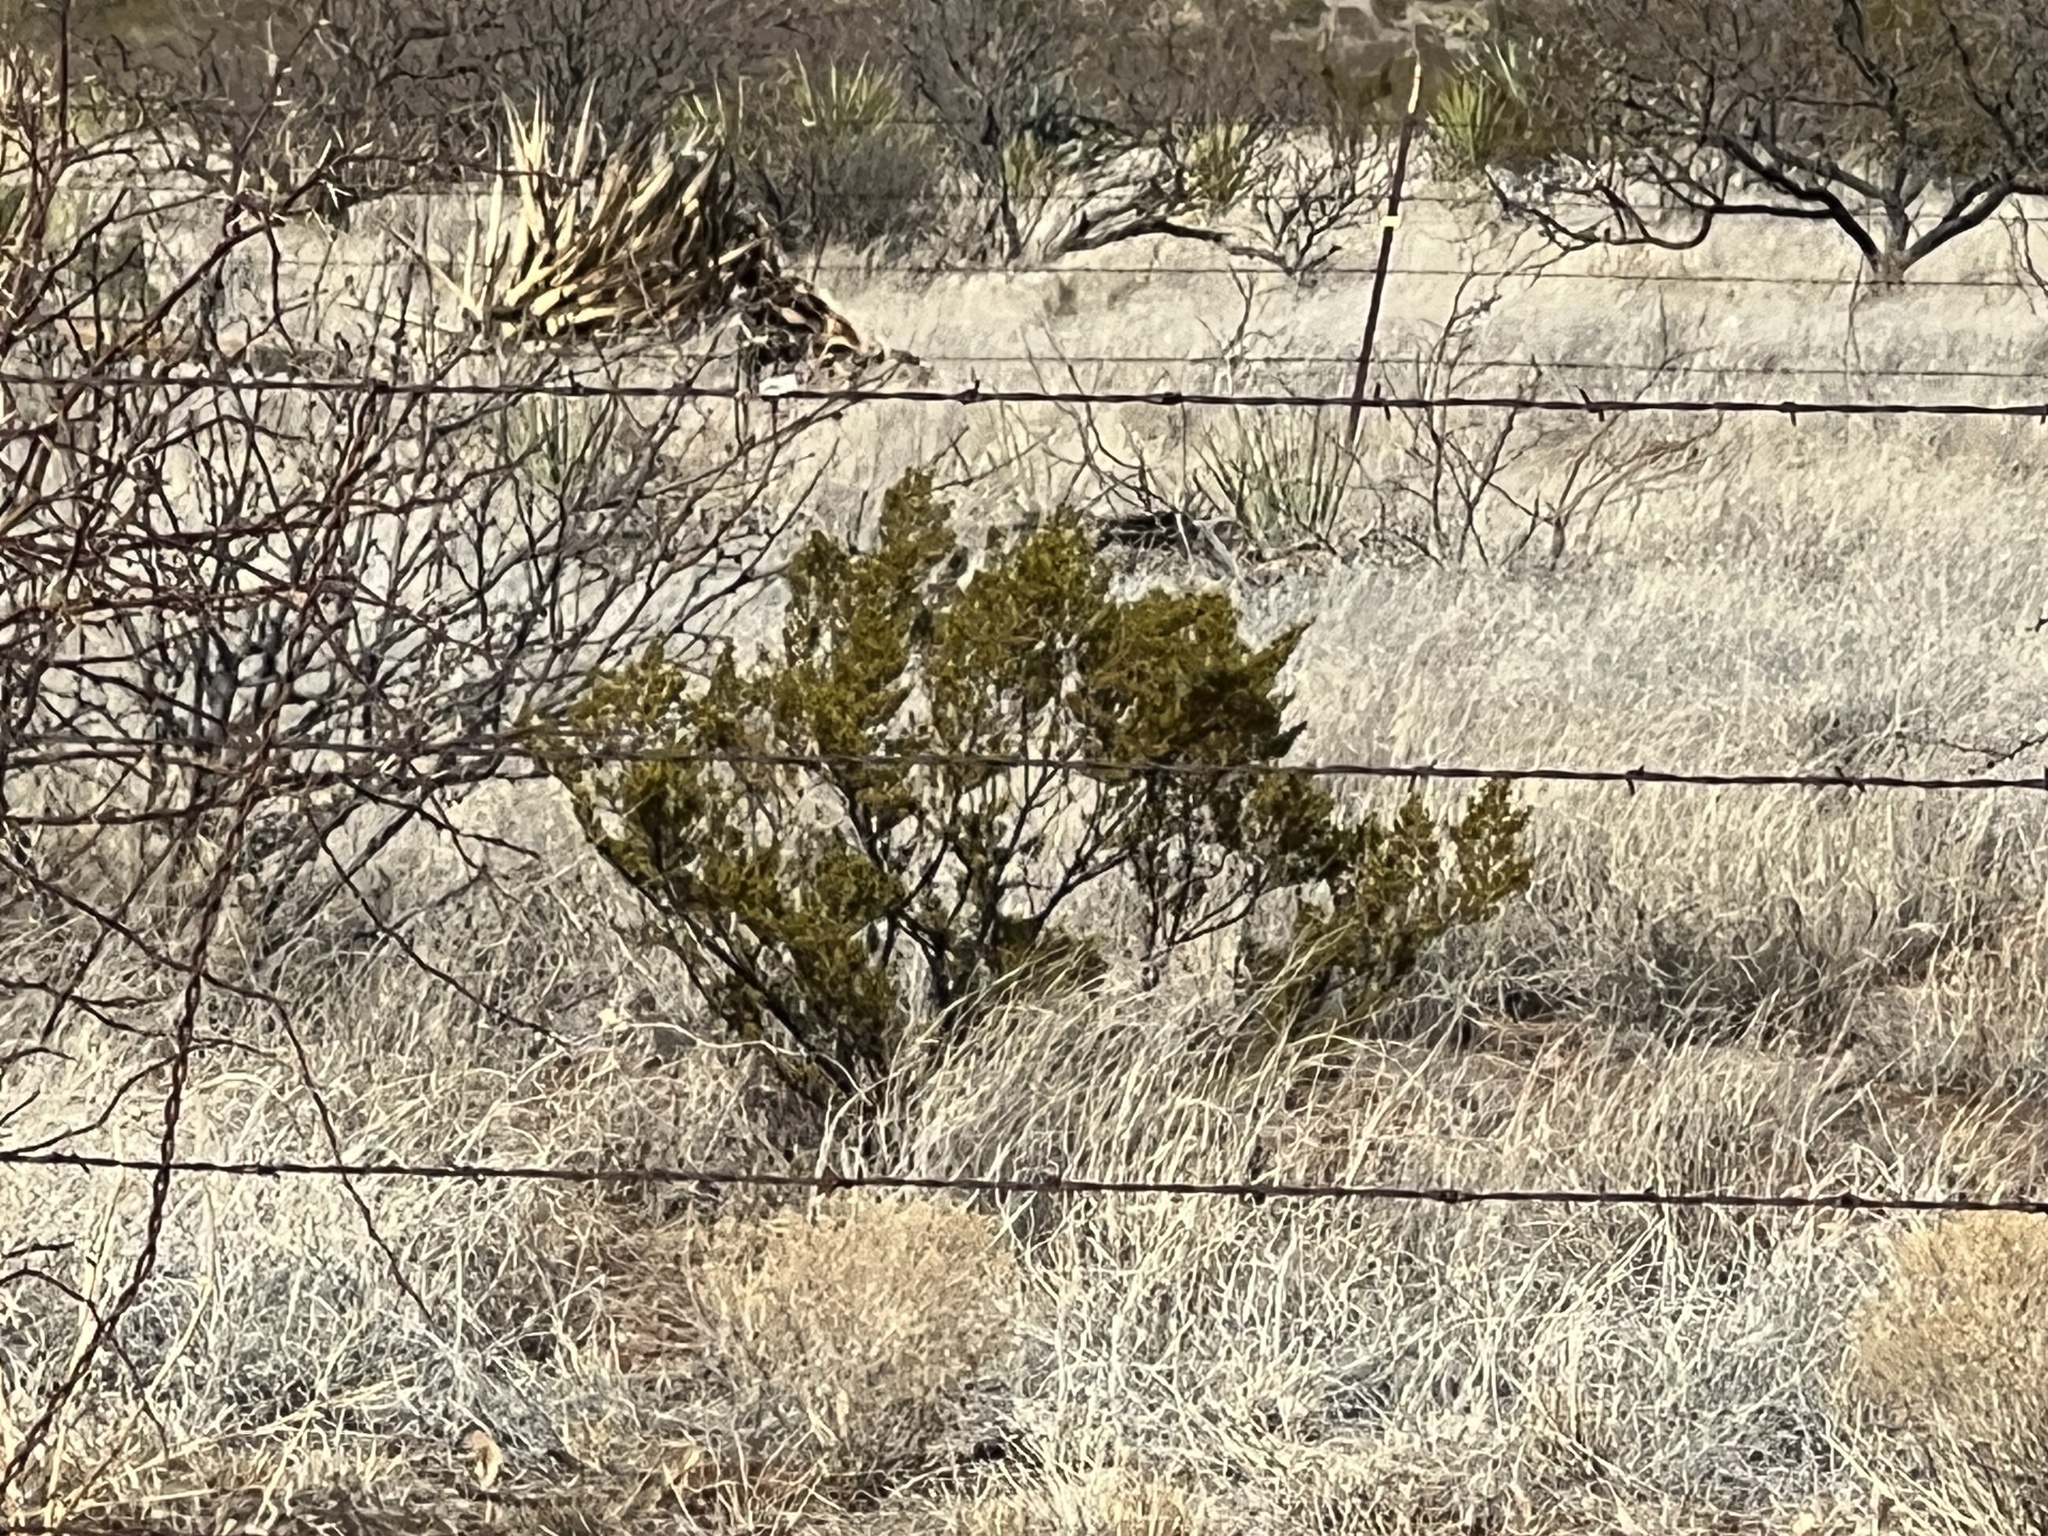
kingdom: Plantae
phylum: Tracheophyta
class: Magnoliopsida
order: Zygophyllales
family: Zygophyllaceae
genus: Larrea
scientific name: Larrea tridentata
